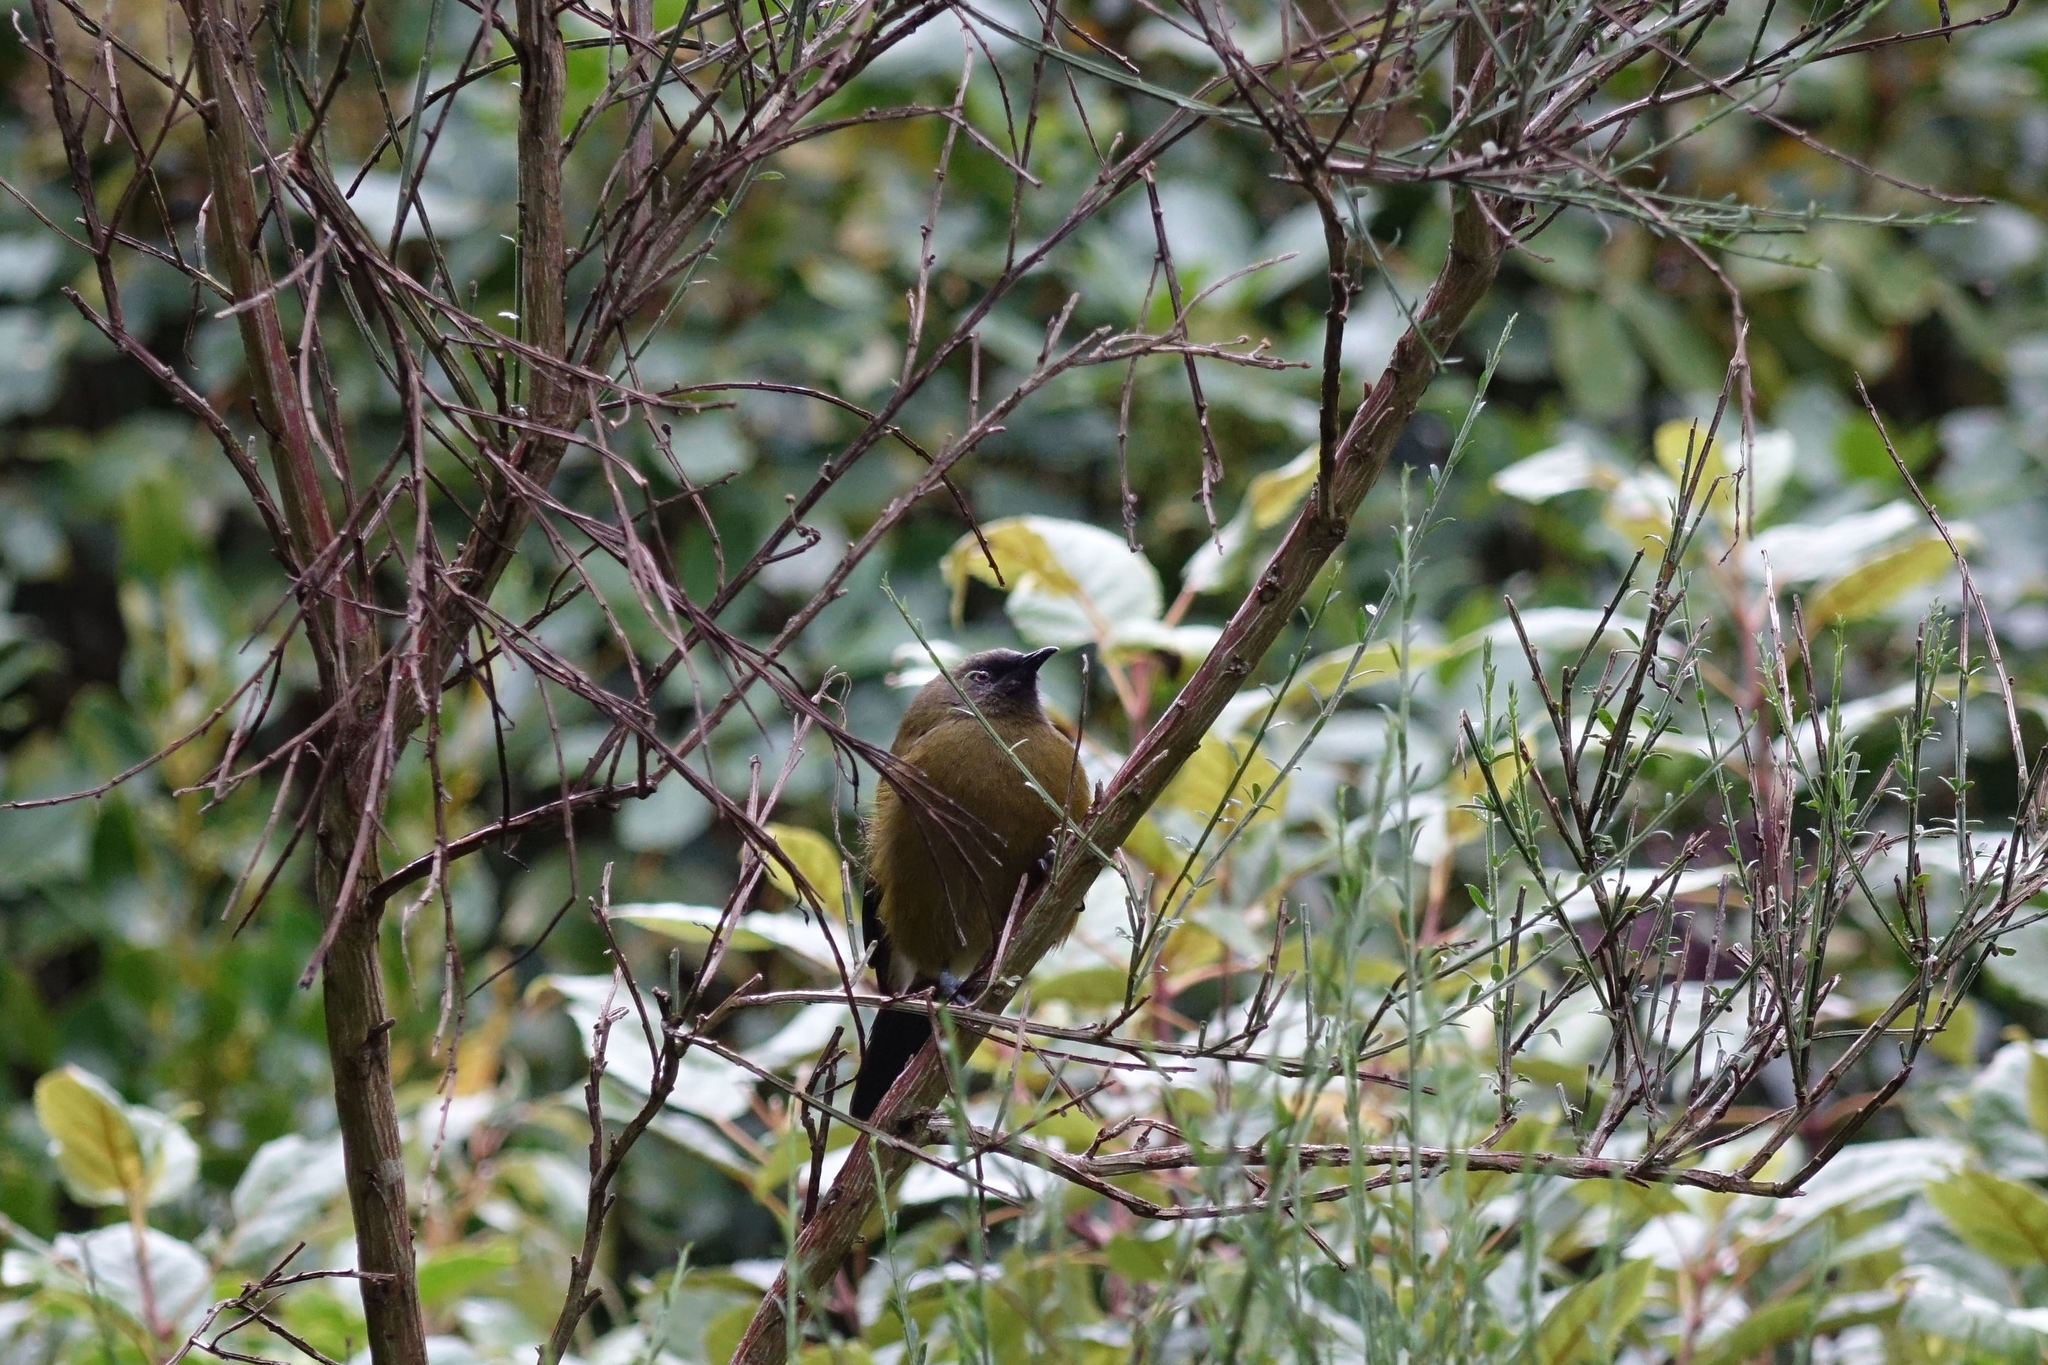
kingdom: Animalia
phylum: Chordata
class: Aves
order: Passeriformes
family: Meliphagidae
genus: Anthornis
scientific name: Anthornis melanura
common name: New zealand bellbird
